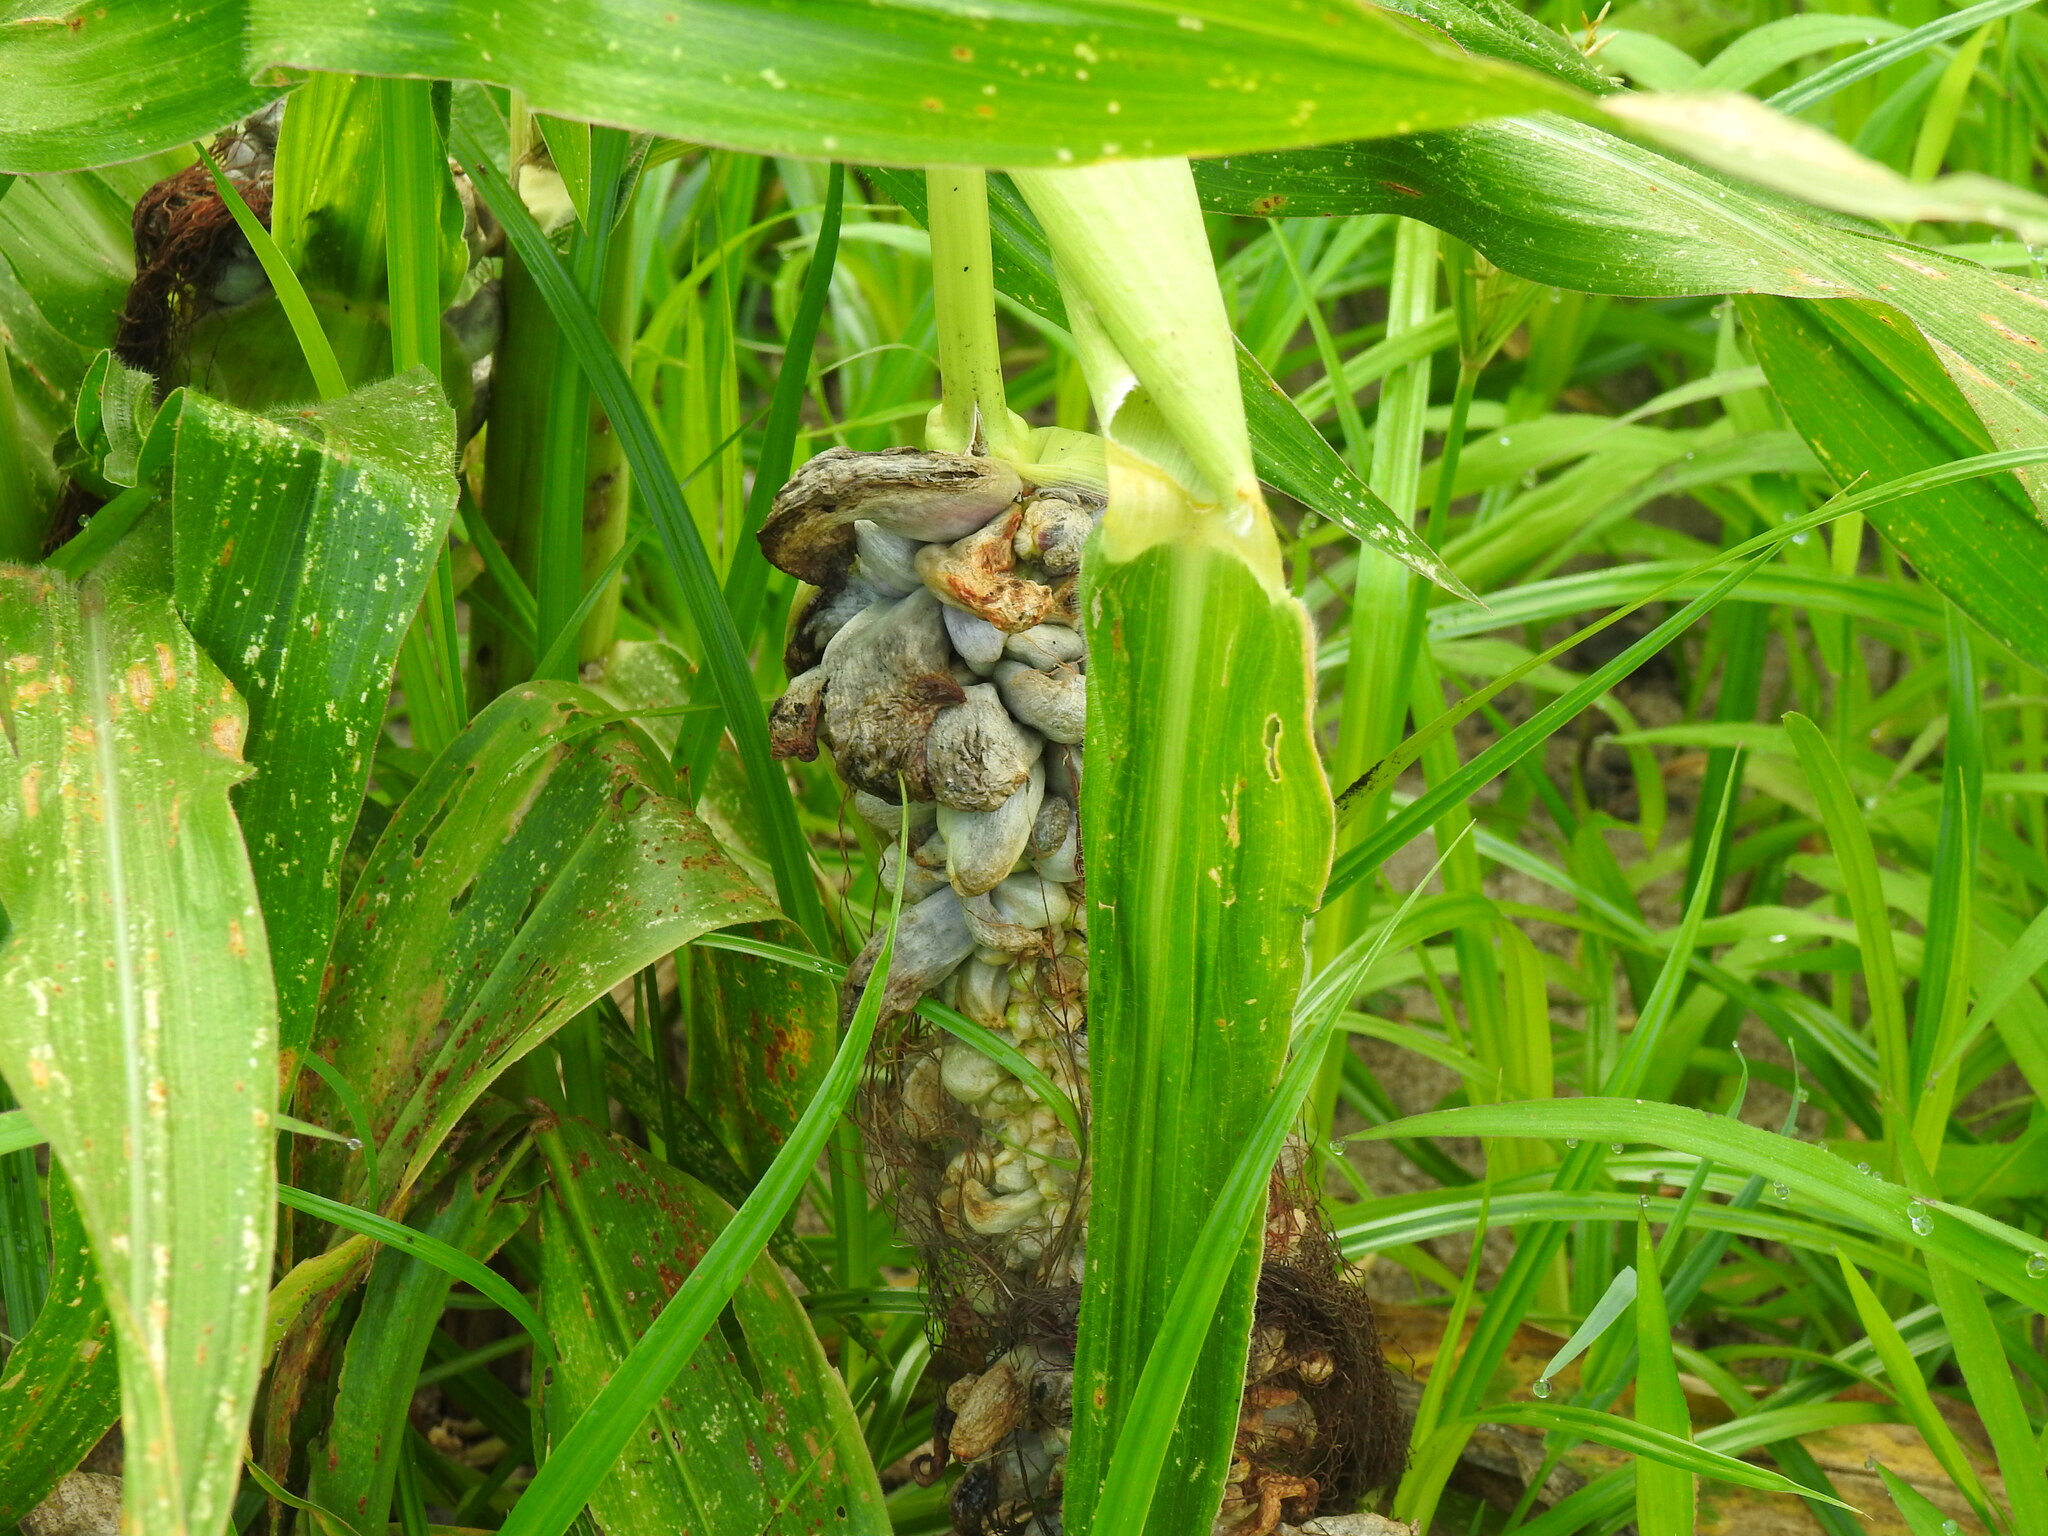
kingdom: Fungi
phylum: Basidiomycota
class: Ustilaginomycetes
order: Ustilaginales
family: Ustilaginaceae
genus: Mycosarcoma
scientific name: Mycosarcoma maydis
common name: Corn smut
